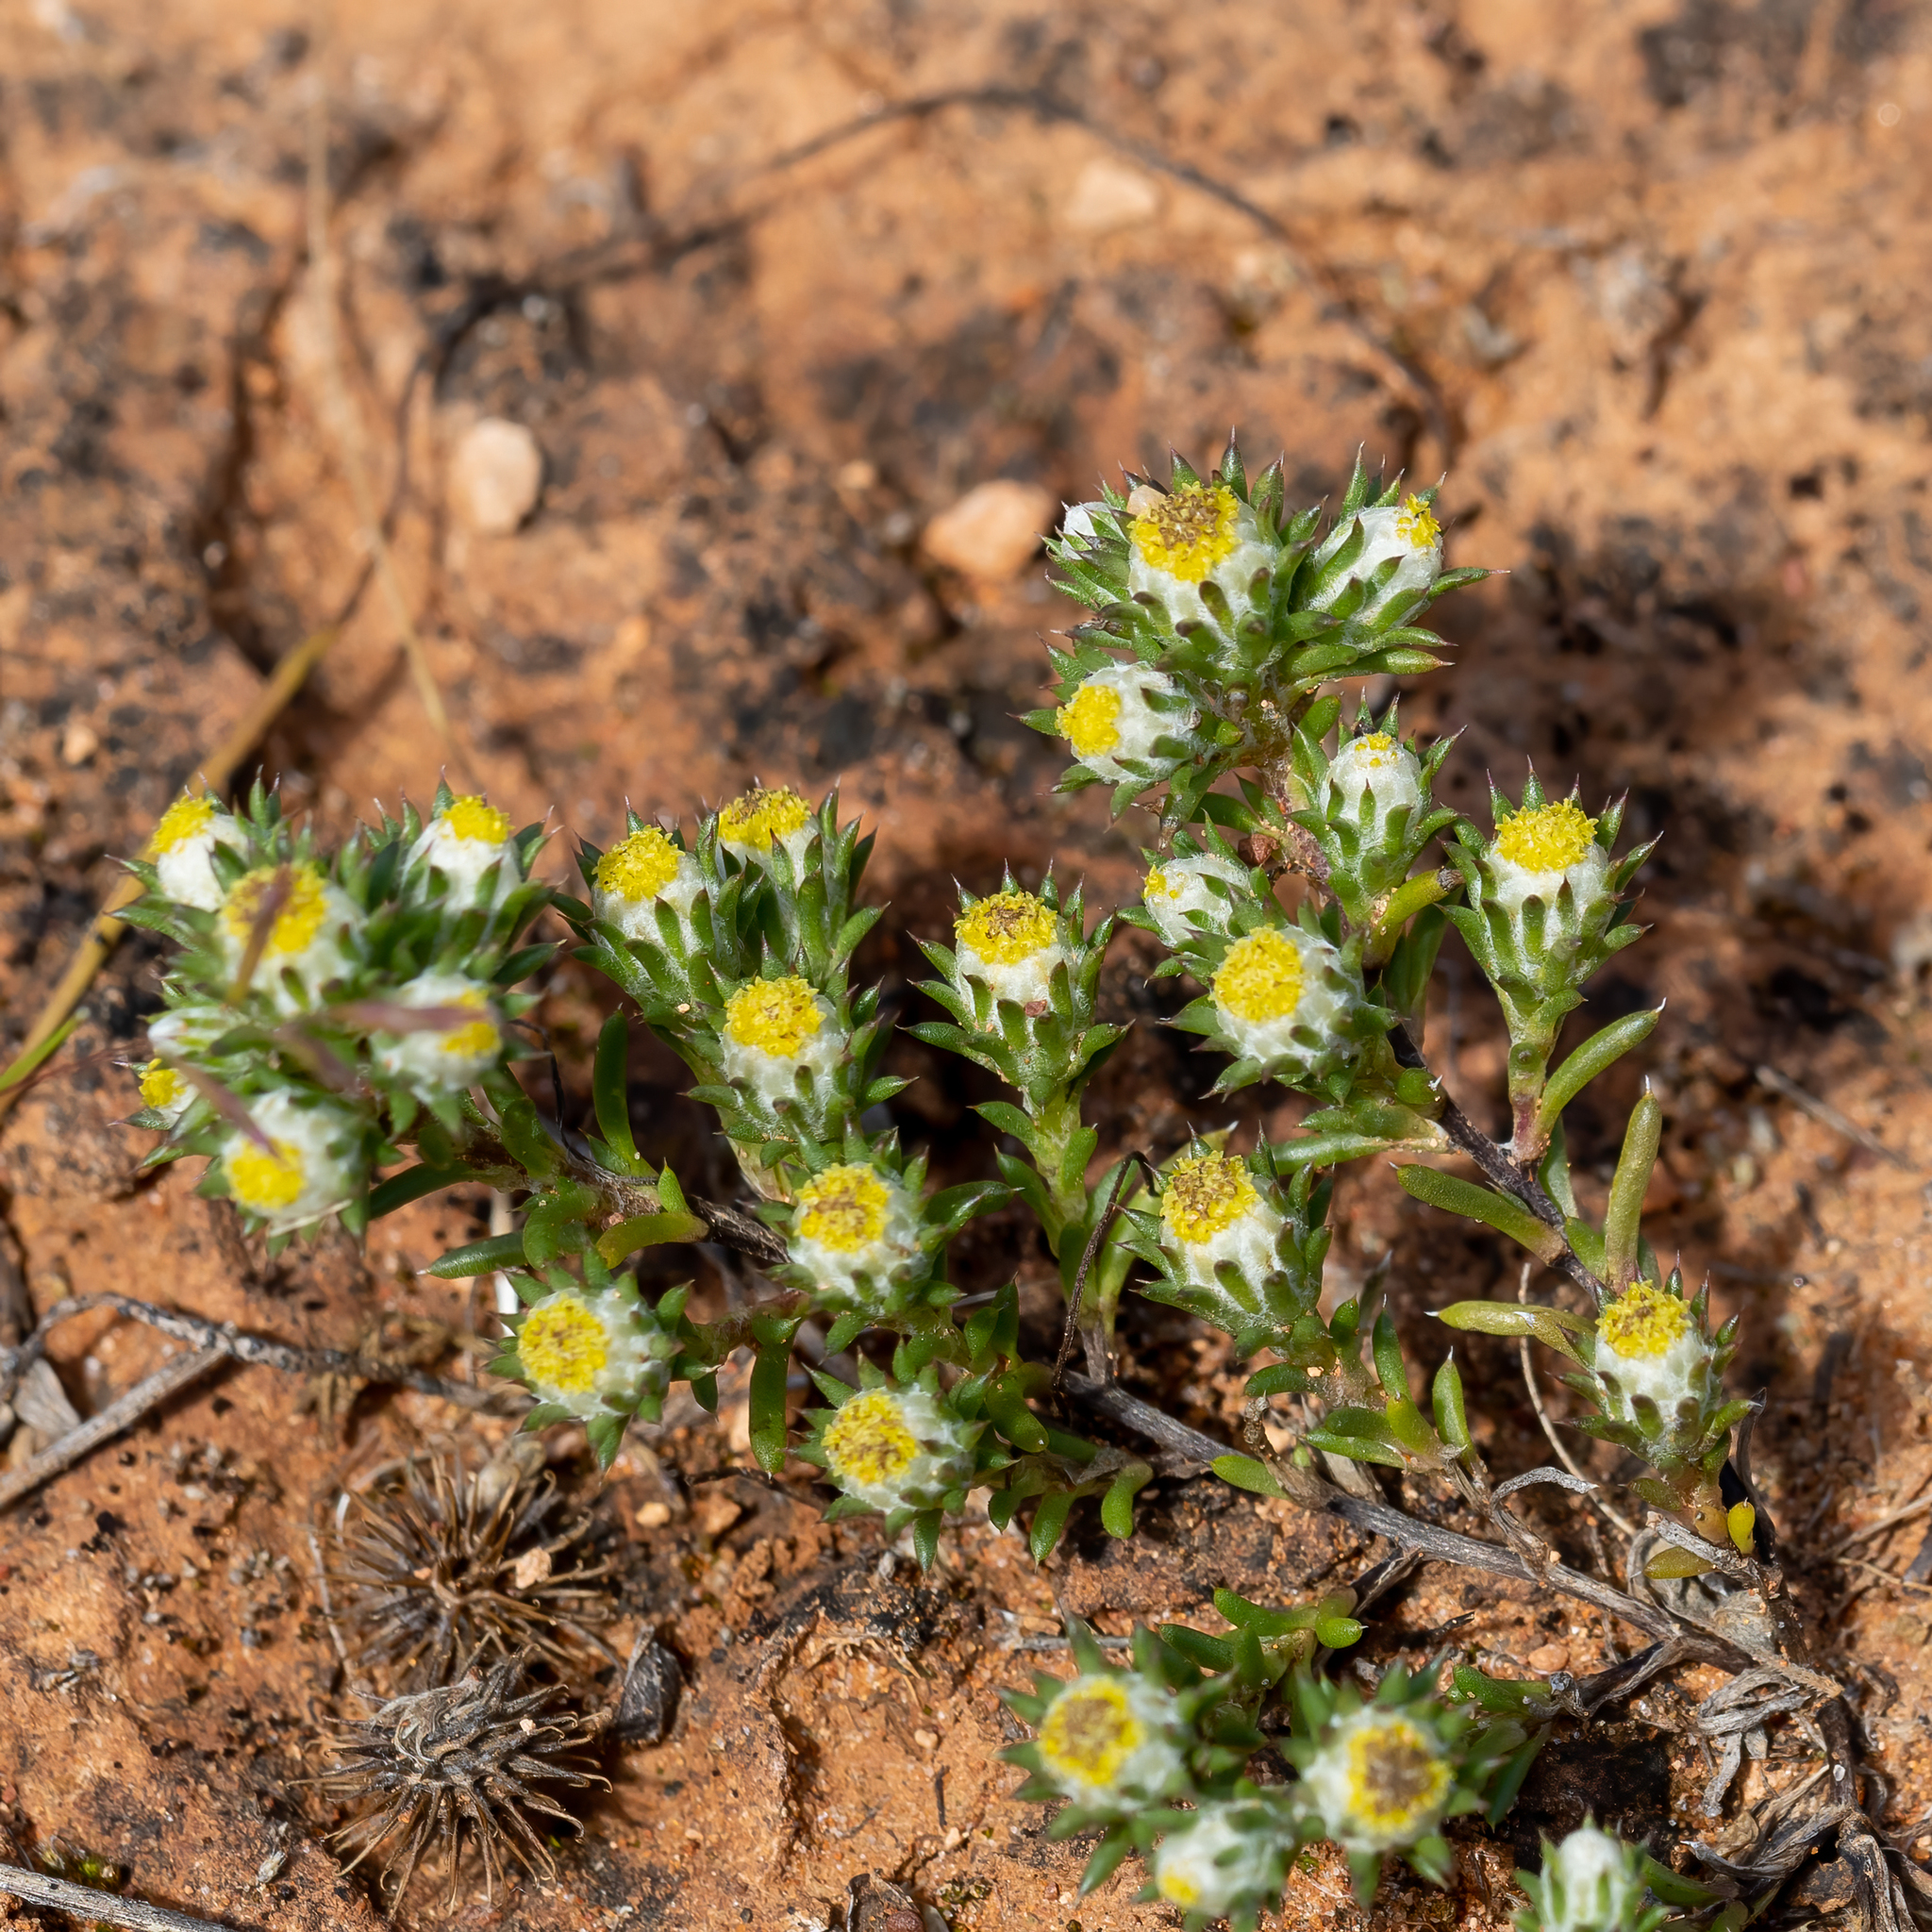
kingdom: Plantae
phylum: Tracheophyta
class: Magnoliopsida
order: Asterales
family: Asteraceae
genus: Pogonolepis
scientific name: Pogonolepis muelleriana
